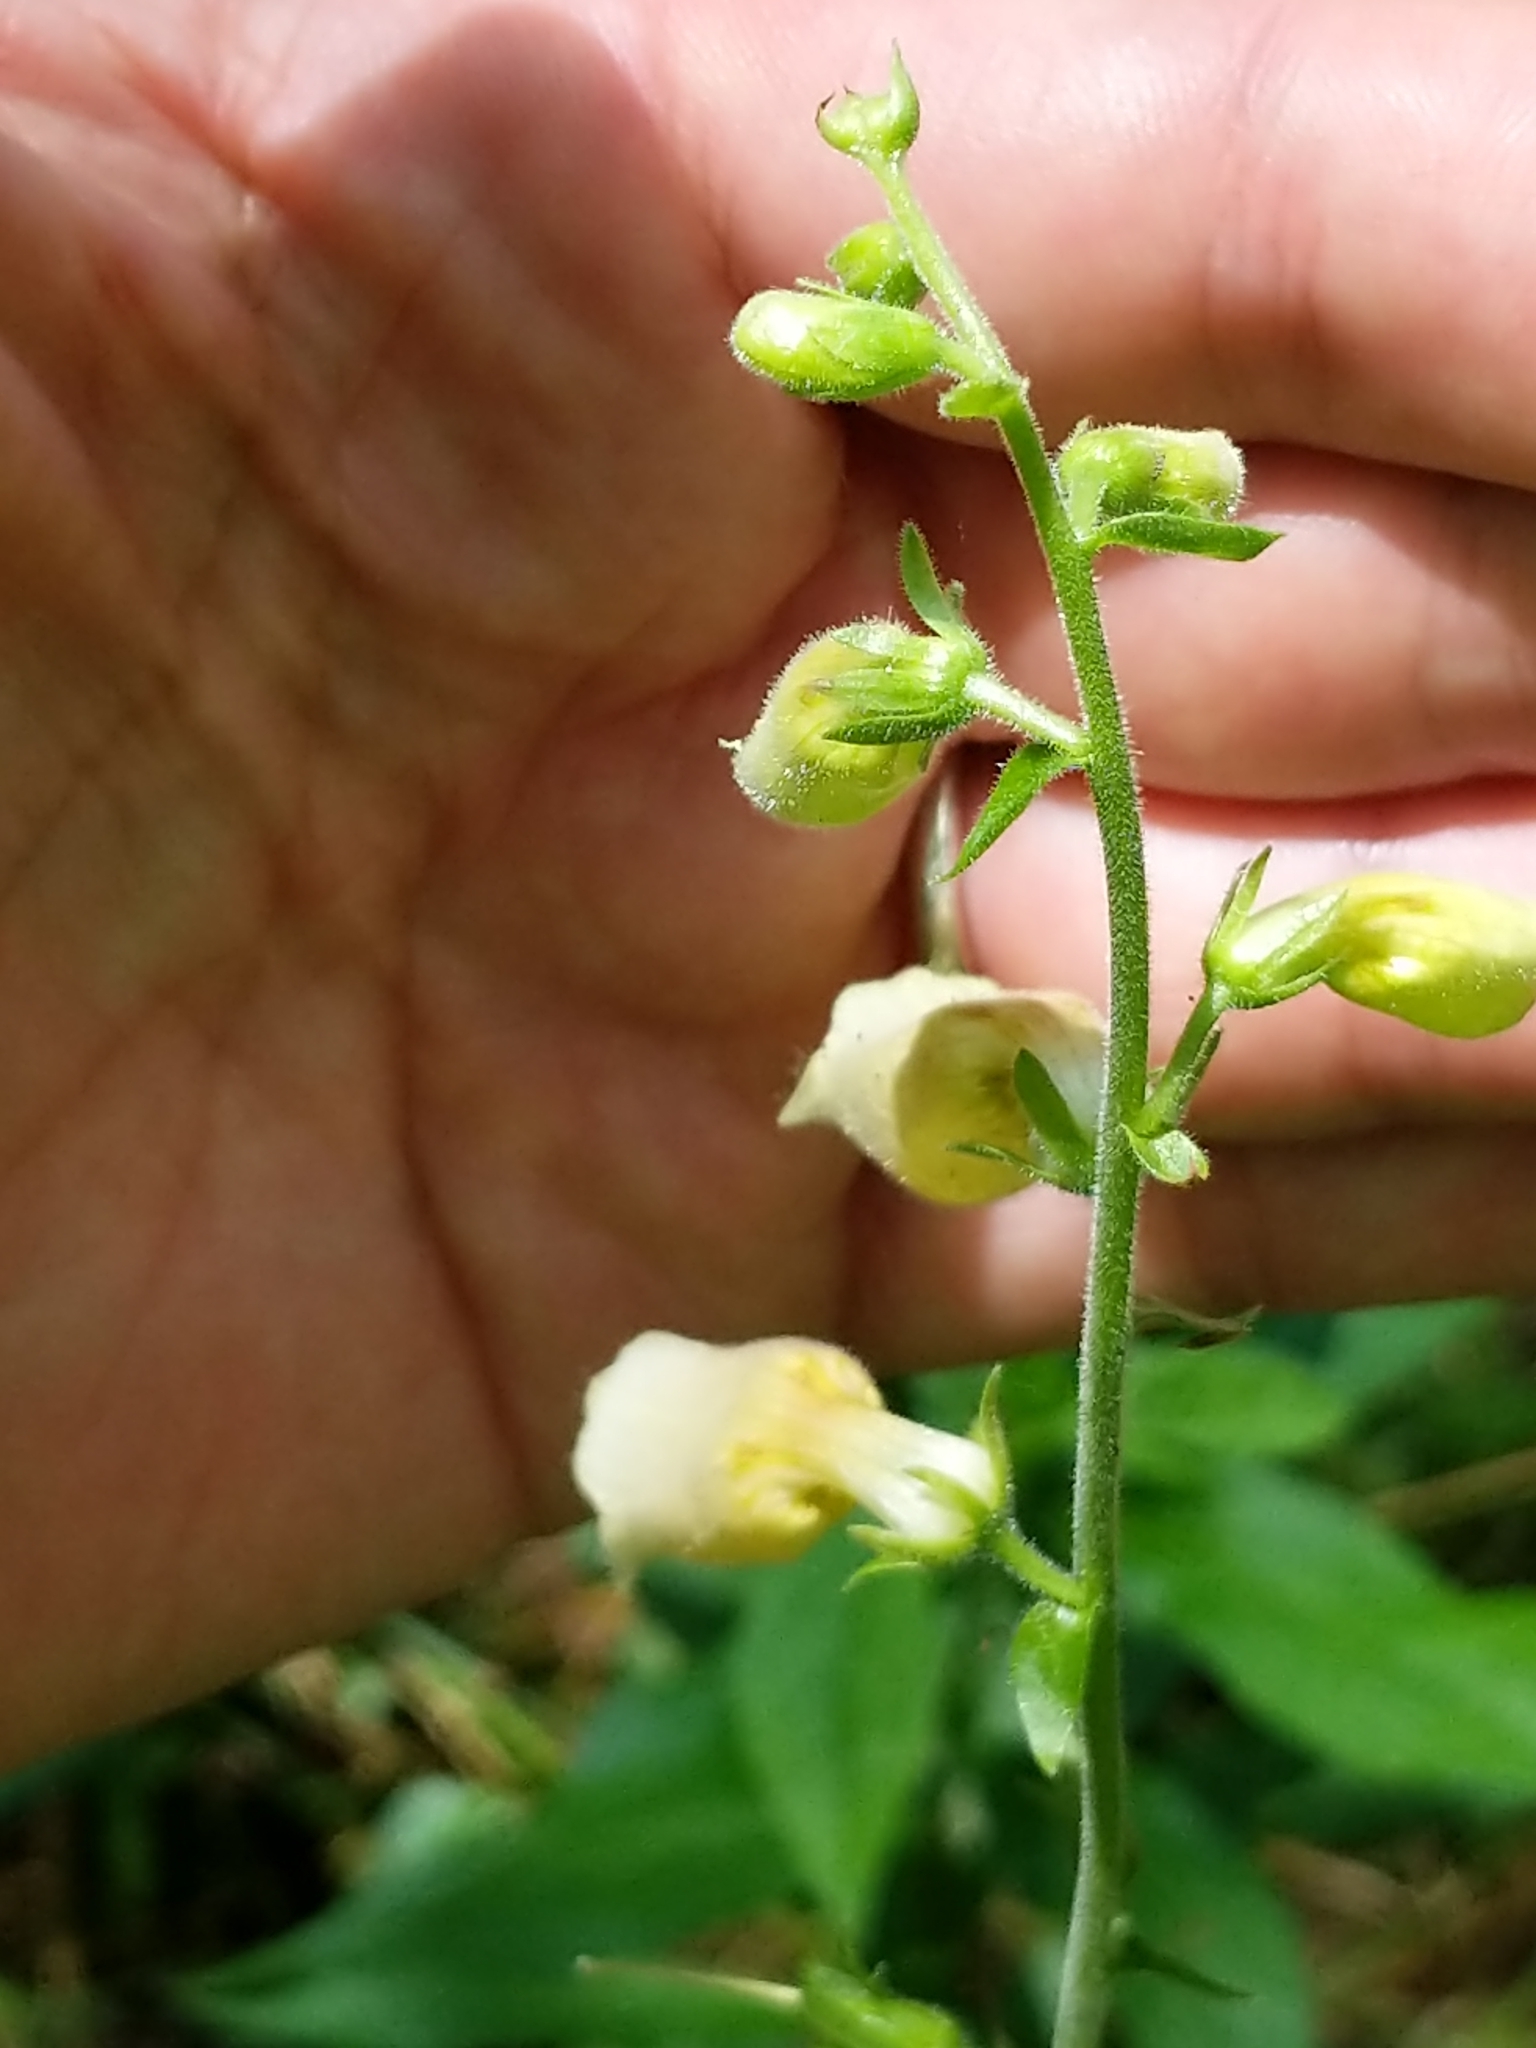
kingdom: Plantae
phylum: Tracheophyta
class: Magnoliopsida
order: Lamiales
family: Plantaginaceae
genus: Digitalis
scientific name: Digitalis grandiflora
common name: Yellow foxglove
